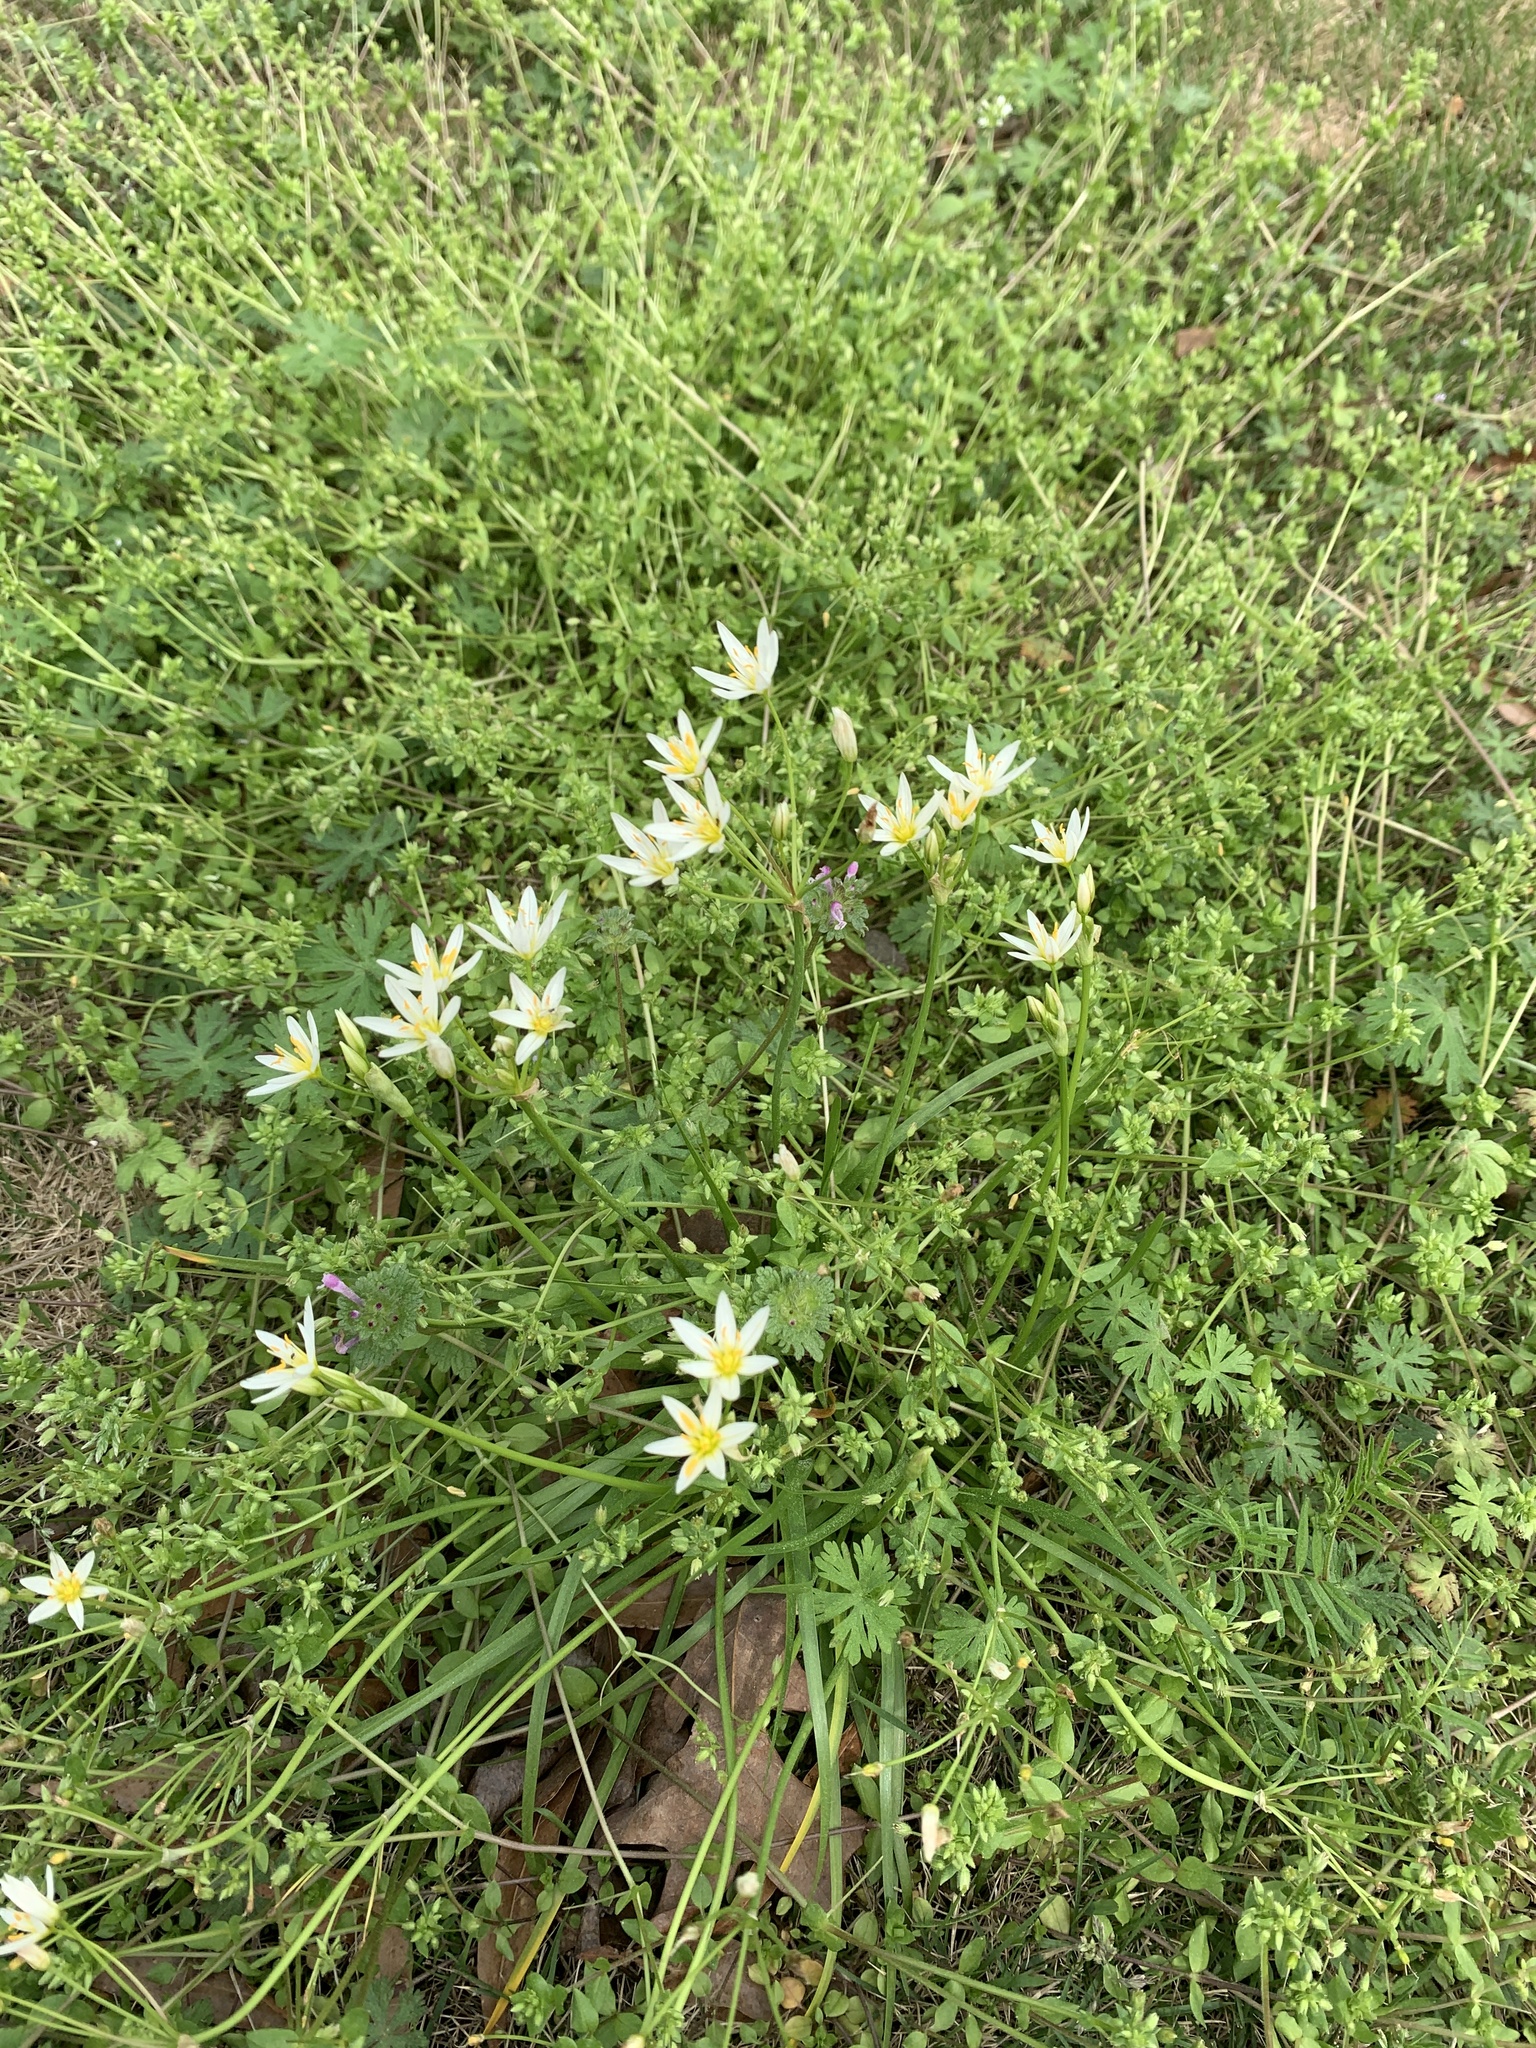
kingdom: Plantae
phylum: Tracheophyta
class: Liliopsida
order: Asparagales
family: Amaryllidaceae
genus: Nothoscordum
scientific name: Nothoscordum bivalve
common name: Crow-poison
